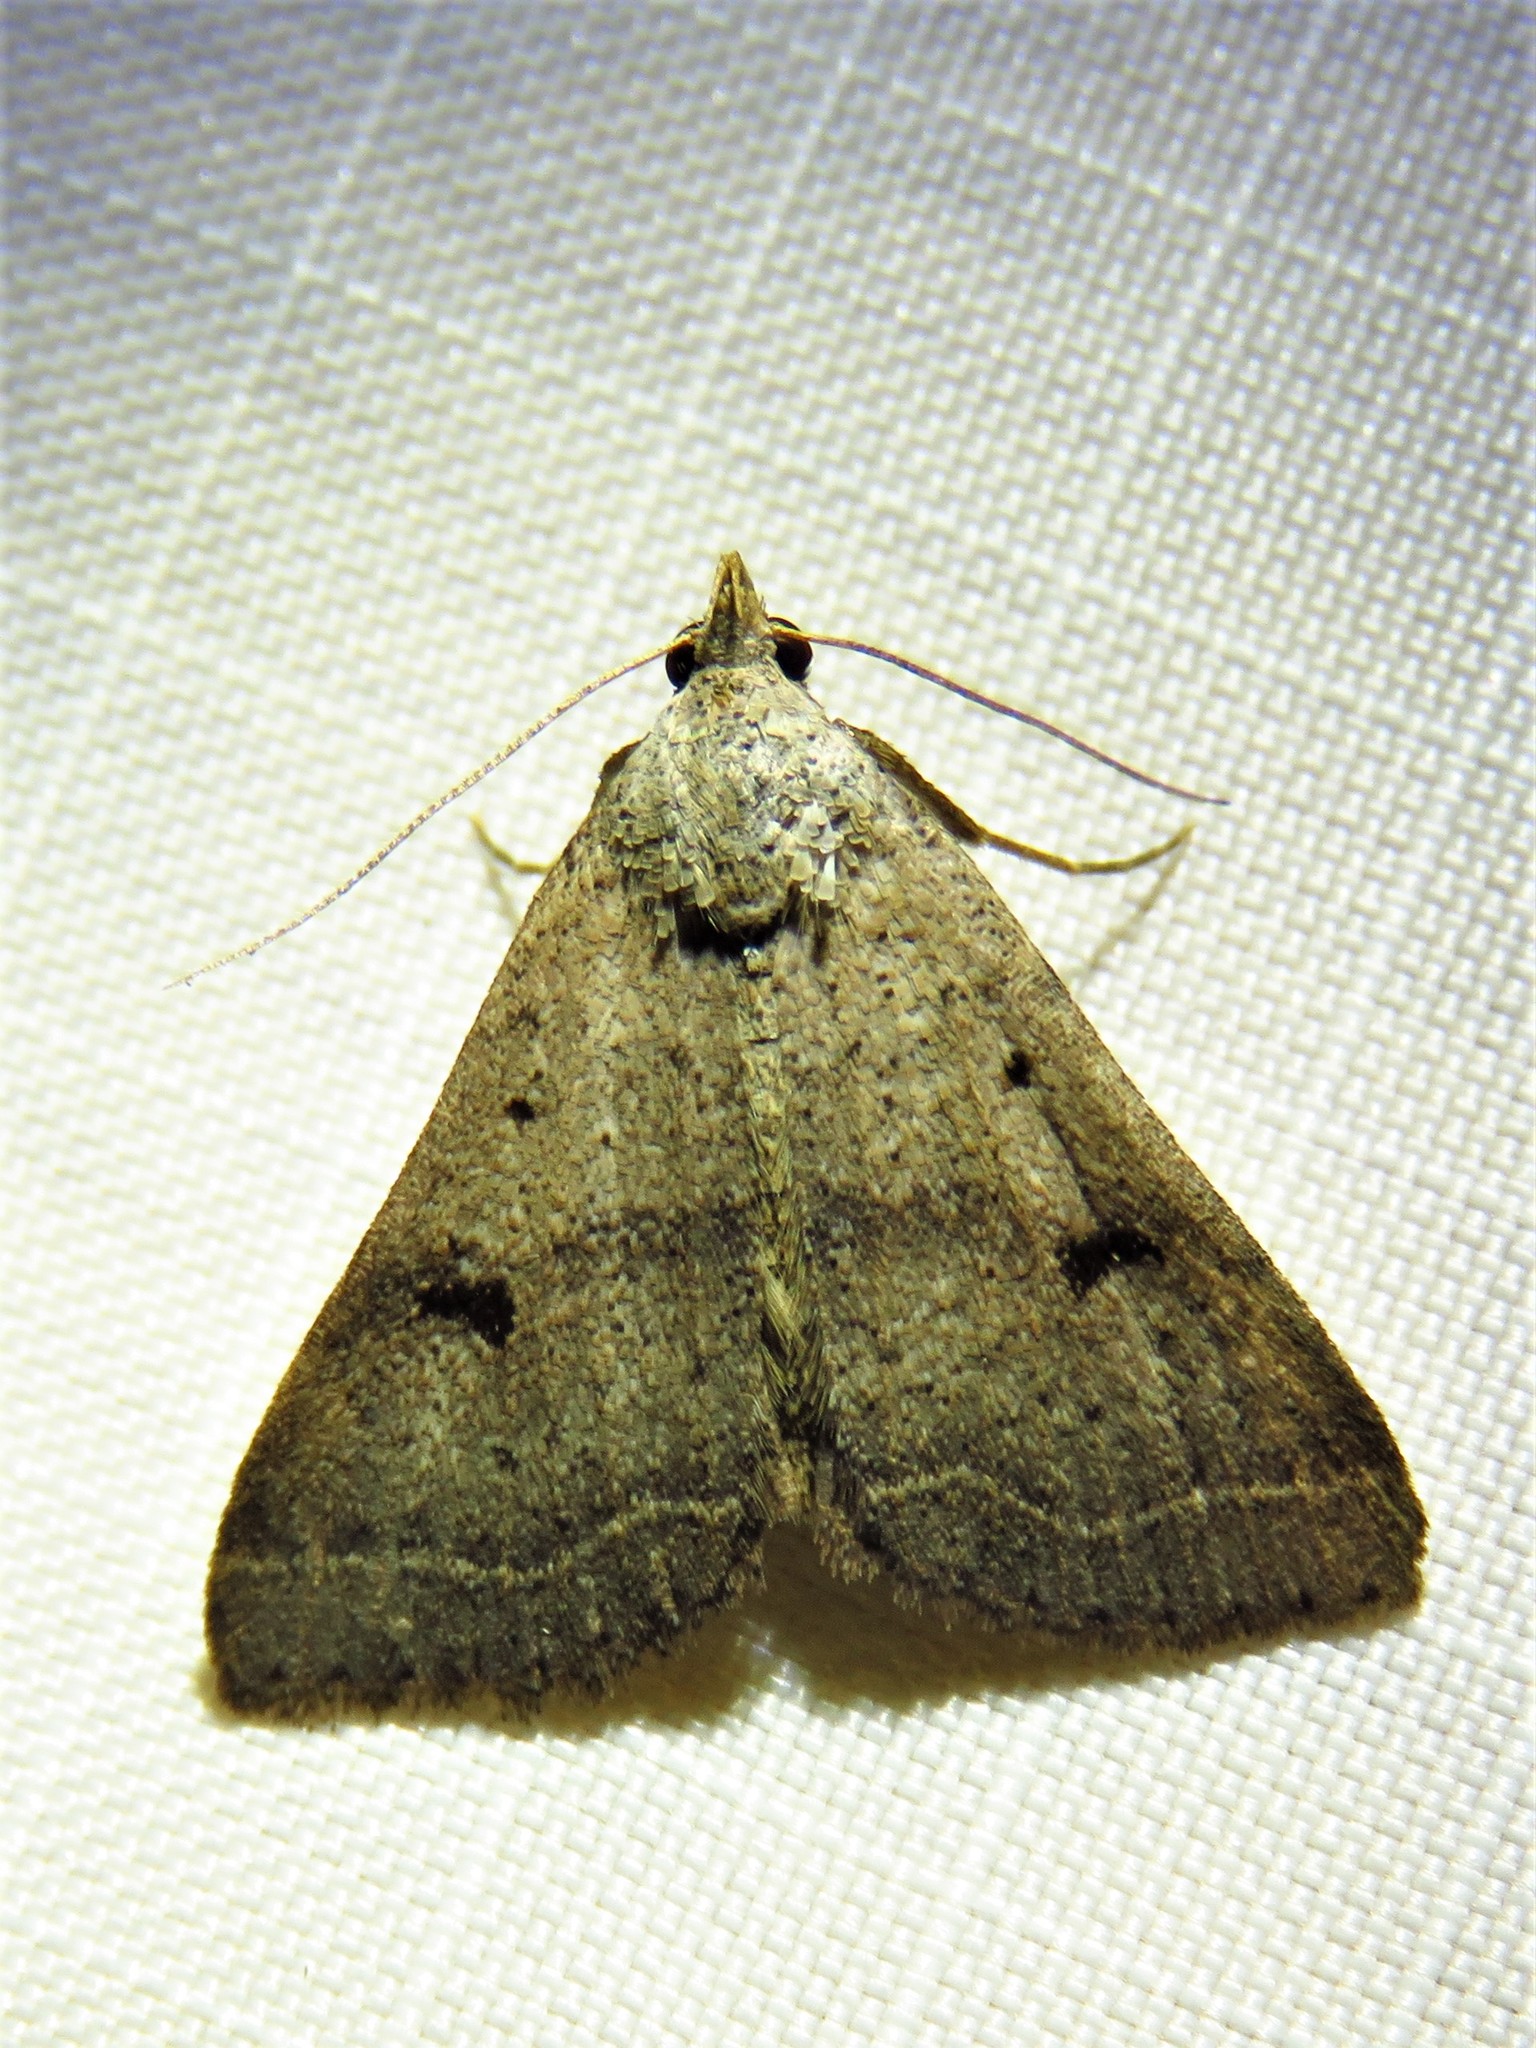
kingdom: Animalia
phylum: Arthropoda
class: Insecta
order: Lepidoptera
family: Erebidae
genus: Bleptina
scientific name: Bleptina caradrinalis
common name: Bent-winged owlet
